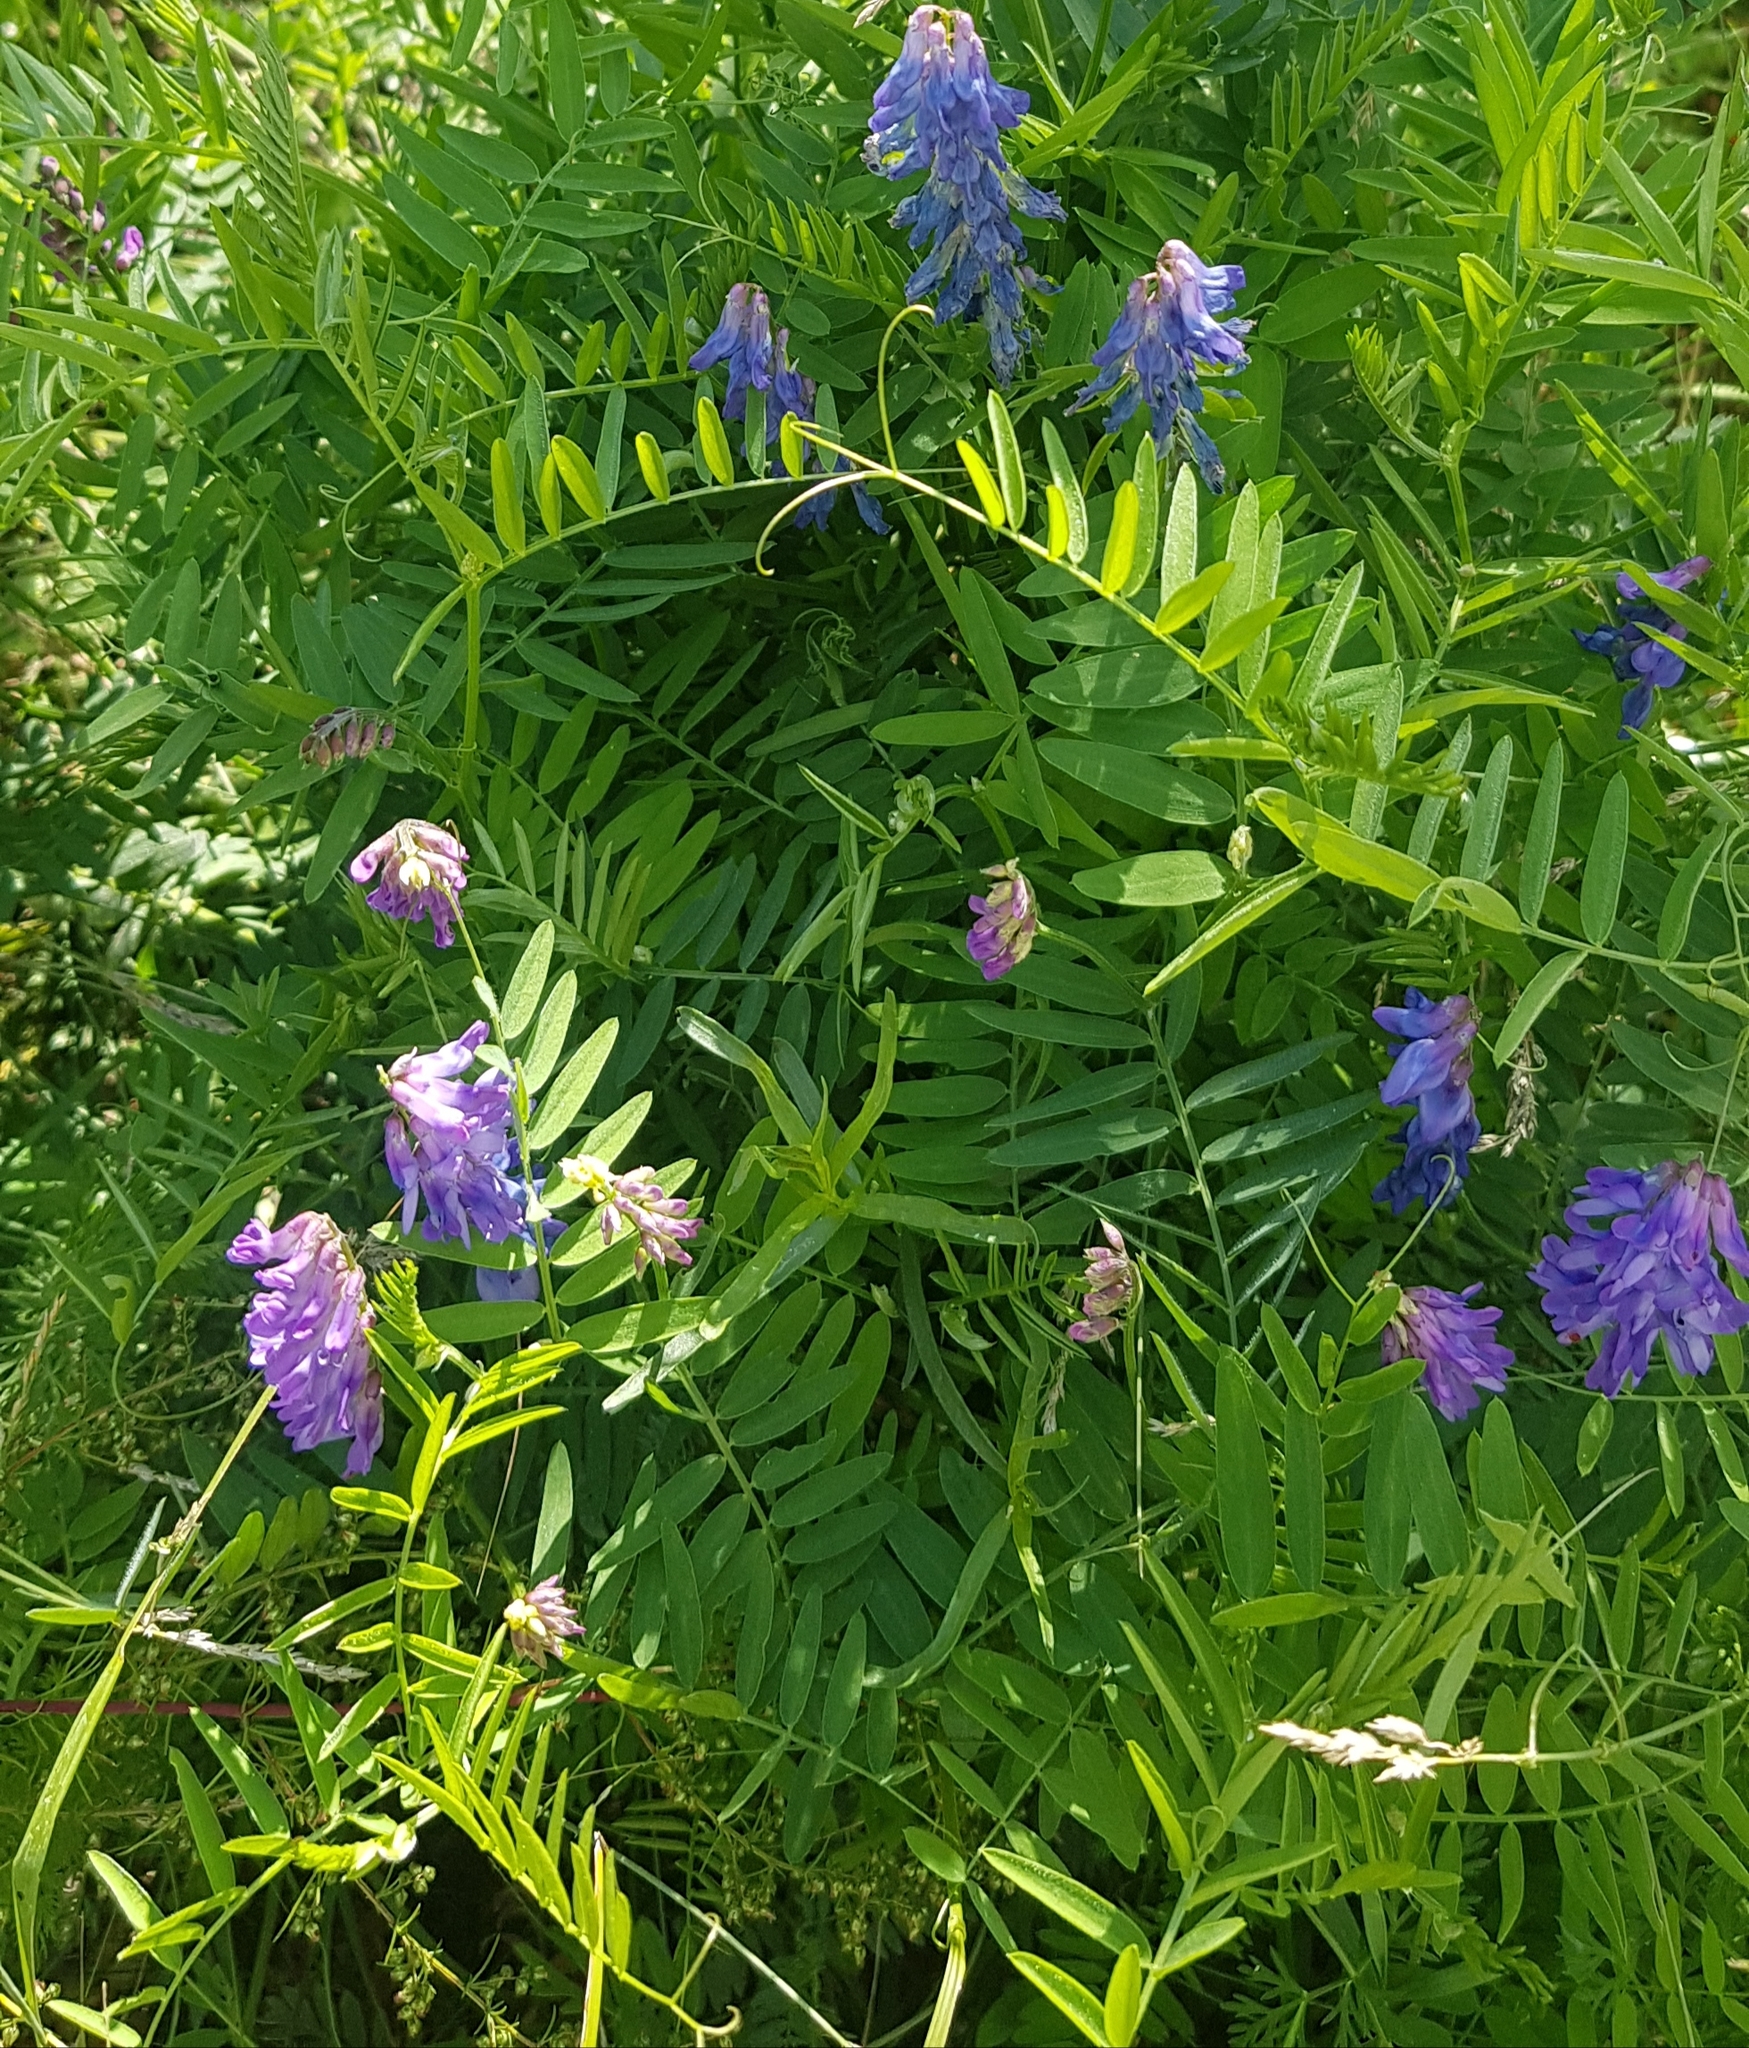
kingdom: Plantae
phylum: Tracheophyta
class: Magnoliopsida
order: Fabales
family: Fabaceae
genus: Vicia
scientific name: Vicia cracca
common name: Bird vetch
